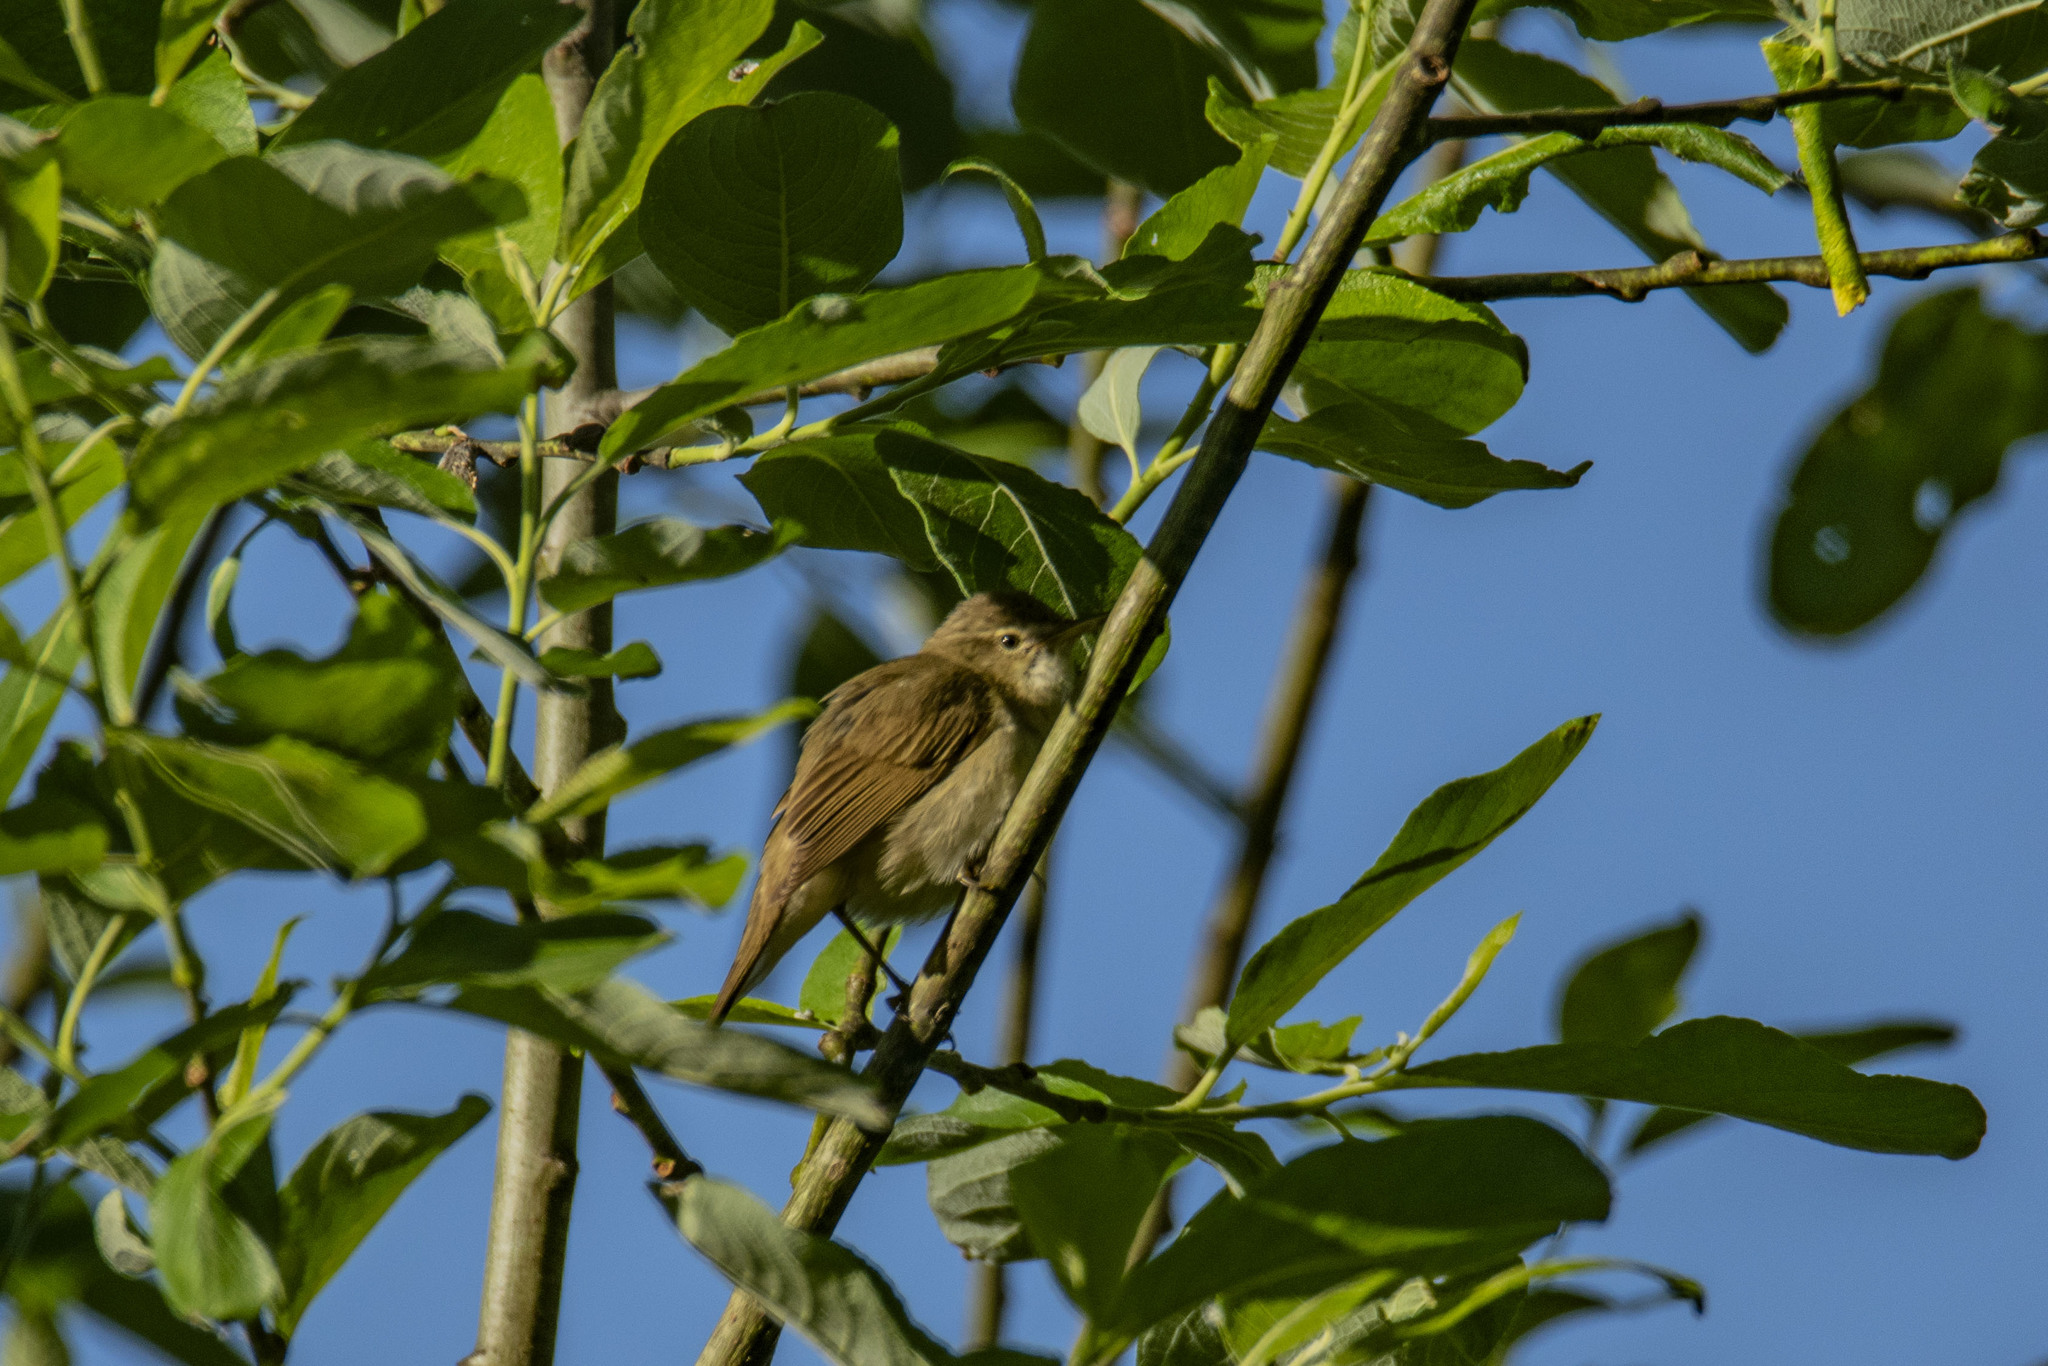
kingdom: Animalia
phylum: Chordata
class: Aves
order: Passeriformes
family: Acrocephalidae
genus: Acrocephalus
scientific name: Acrocephalus dumetorum
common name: Blyth's reed warbler
